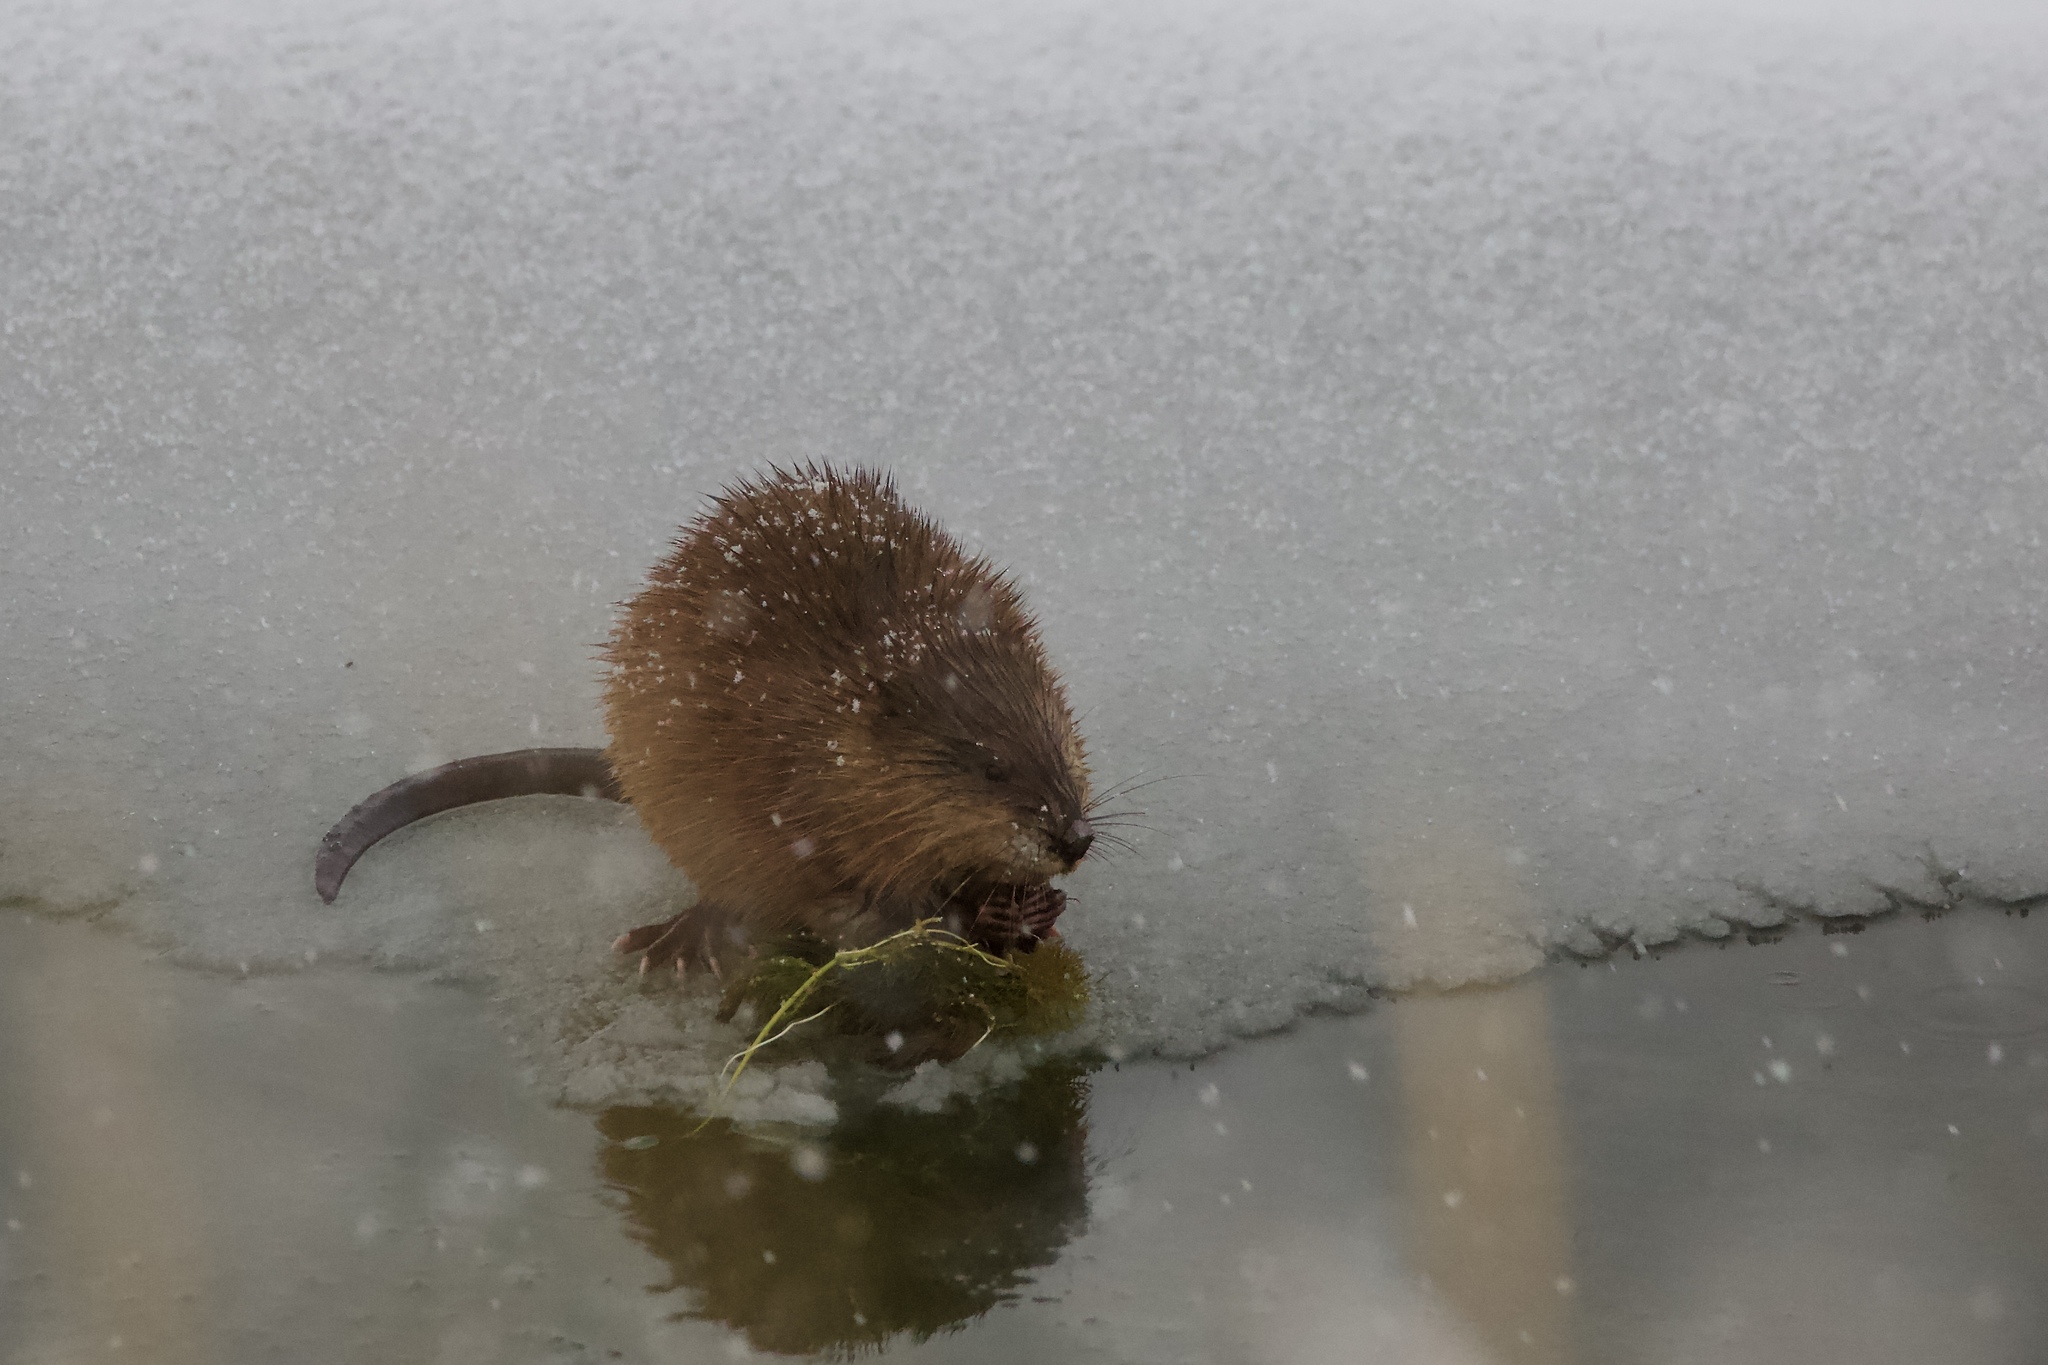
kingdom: Animalia
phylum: Chordata
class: Mammalia
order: Rodentia
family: Cricetidae
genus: Ondatra
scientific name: Ondatra zibethicus
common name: Muskrat
